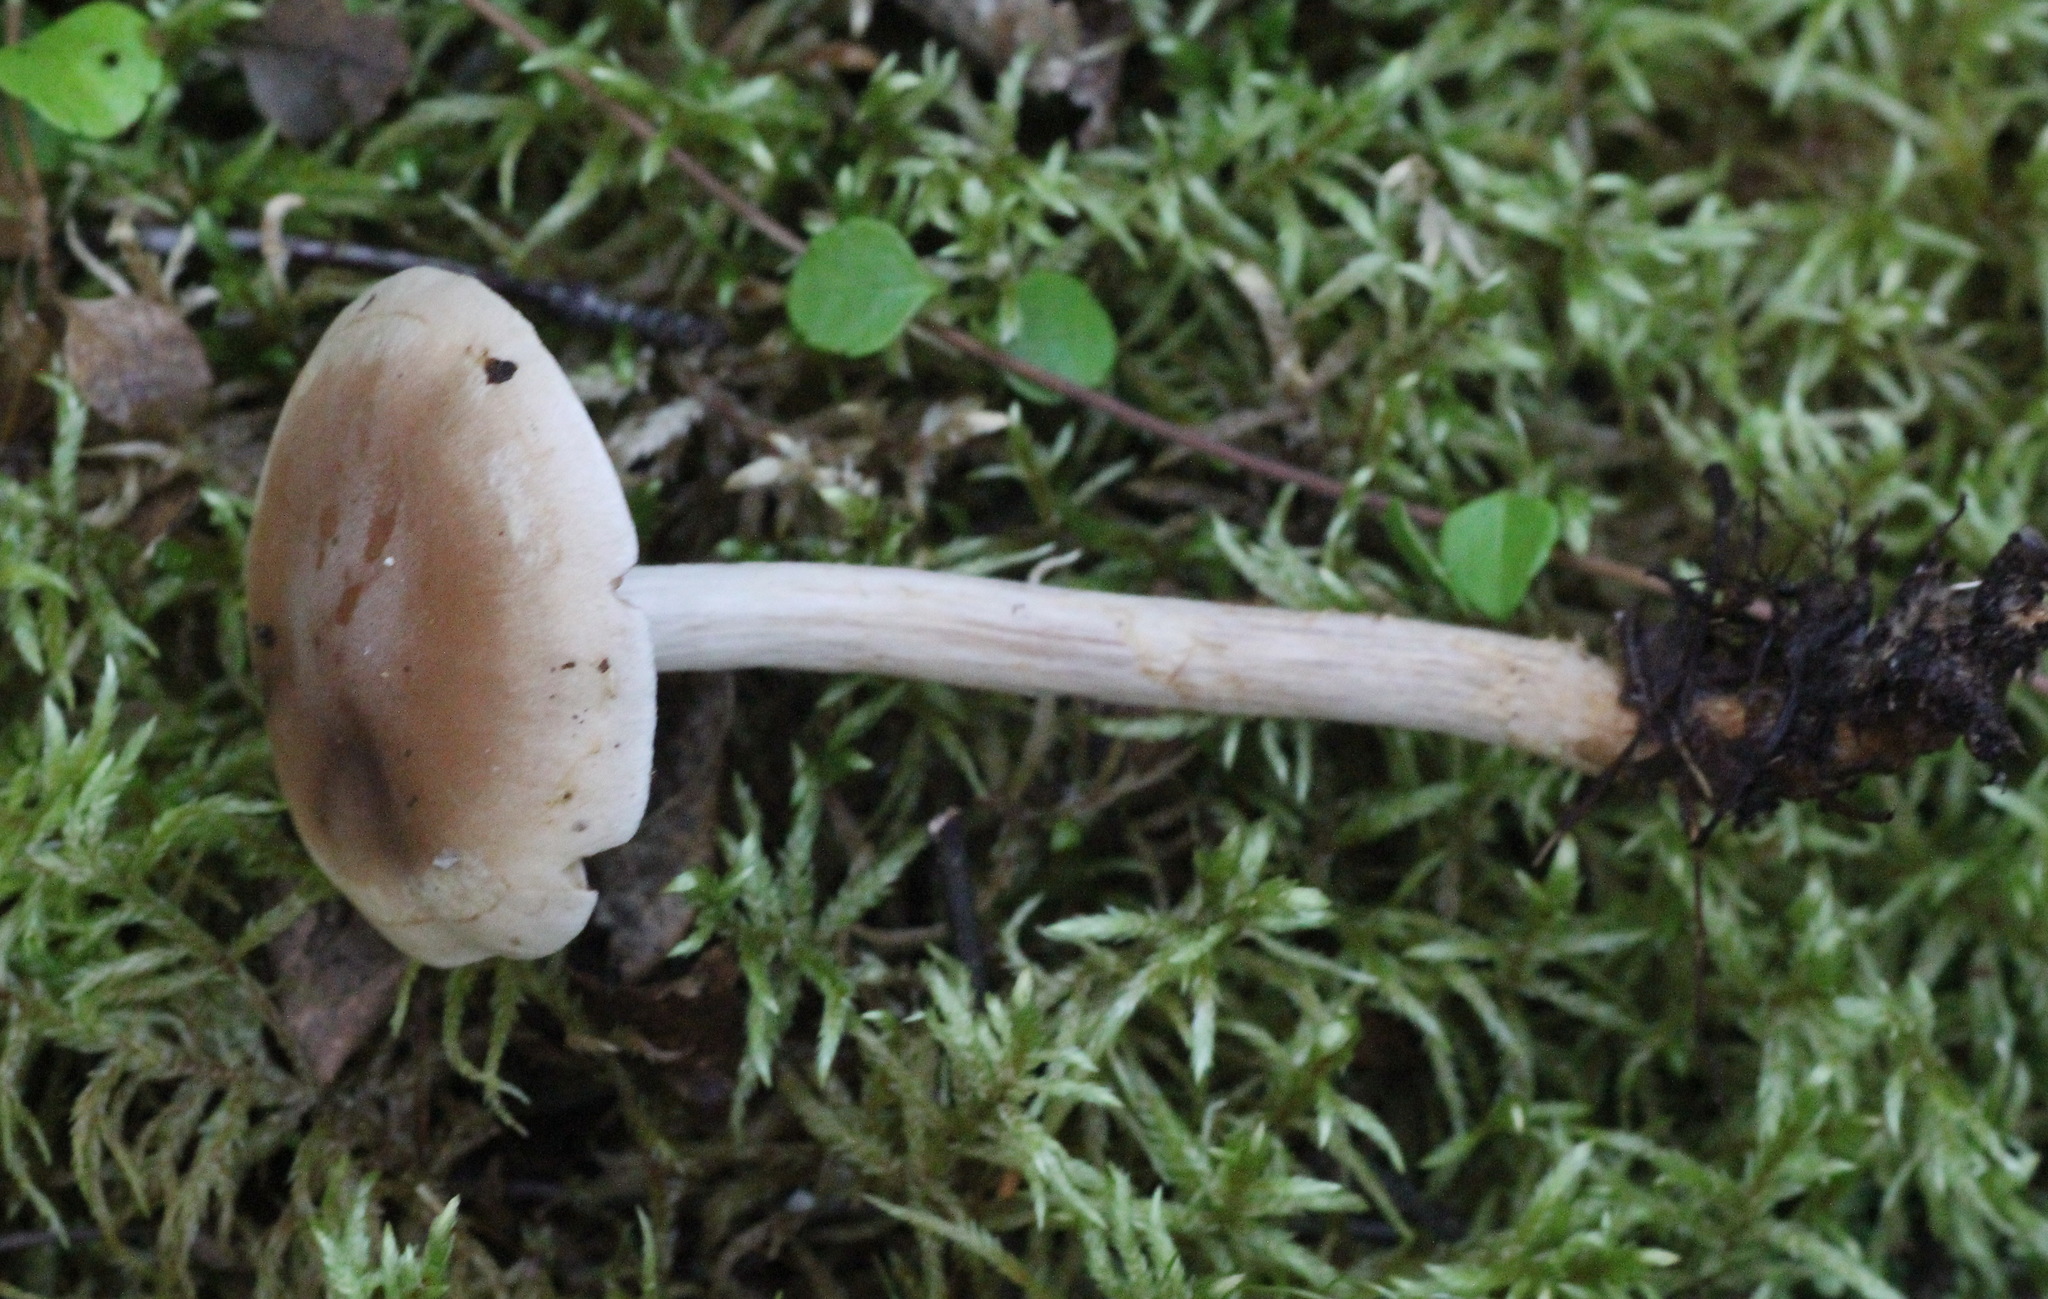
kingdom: Fungi
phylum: Basidiomycota
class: Agaricomycetes
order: Agaricales
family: Hymenogastraceae
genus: Hebeloma
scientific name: Hebeloma mesophaeum
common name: Veiled poisonpie
